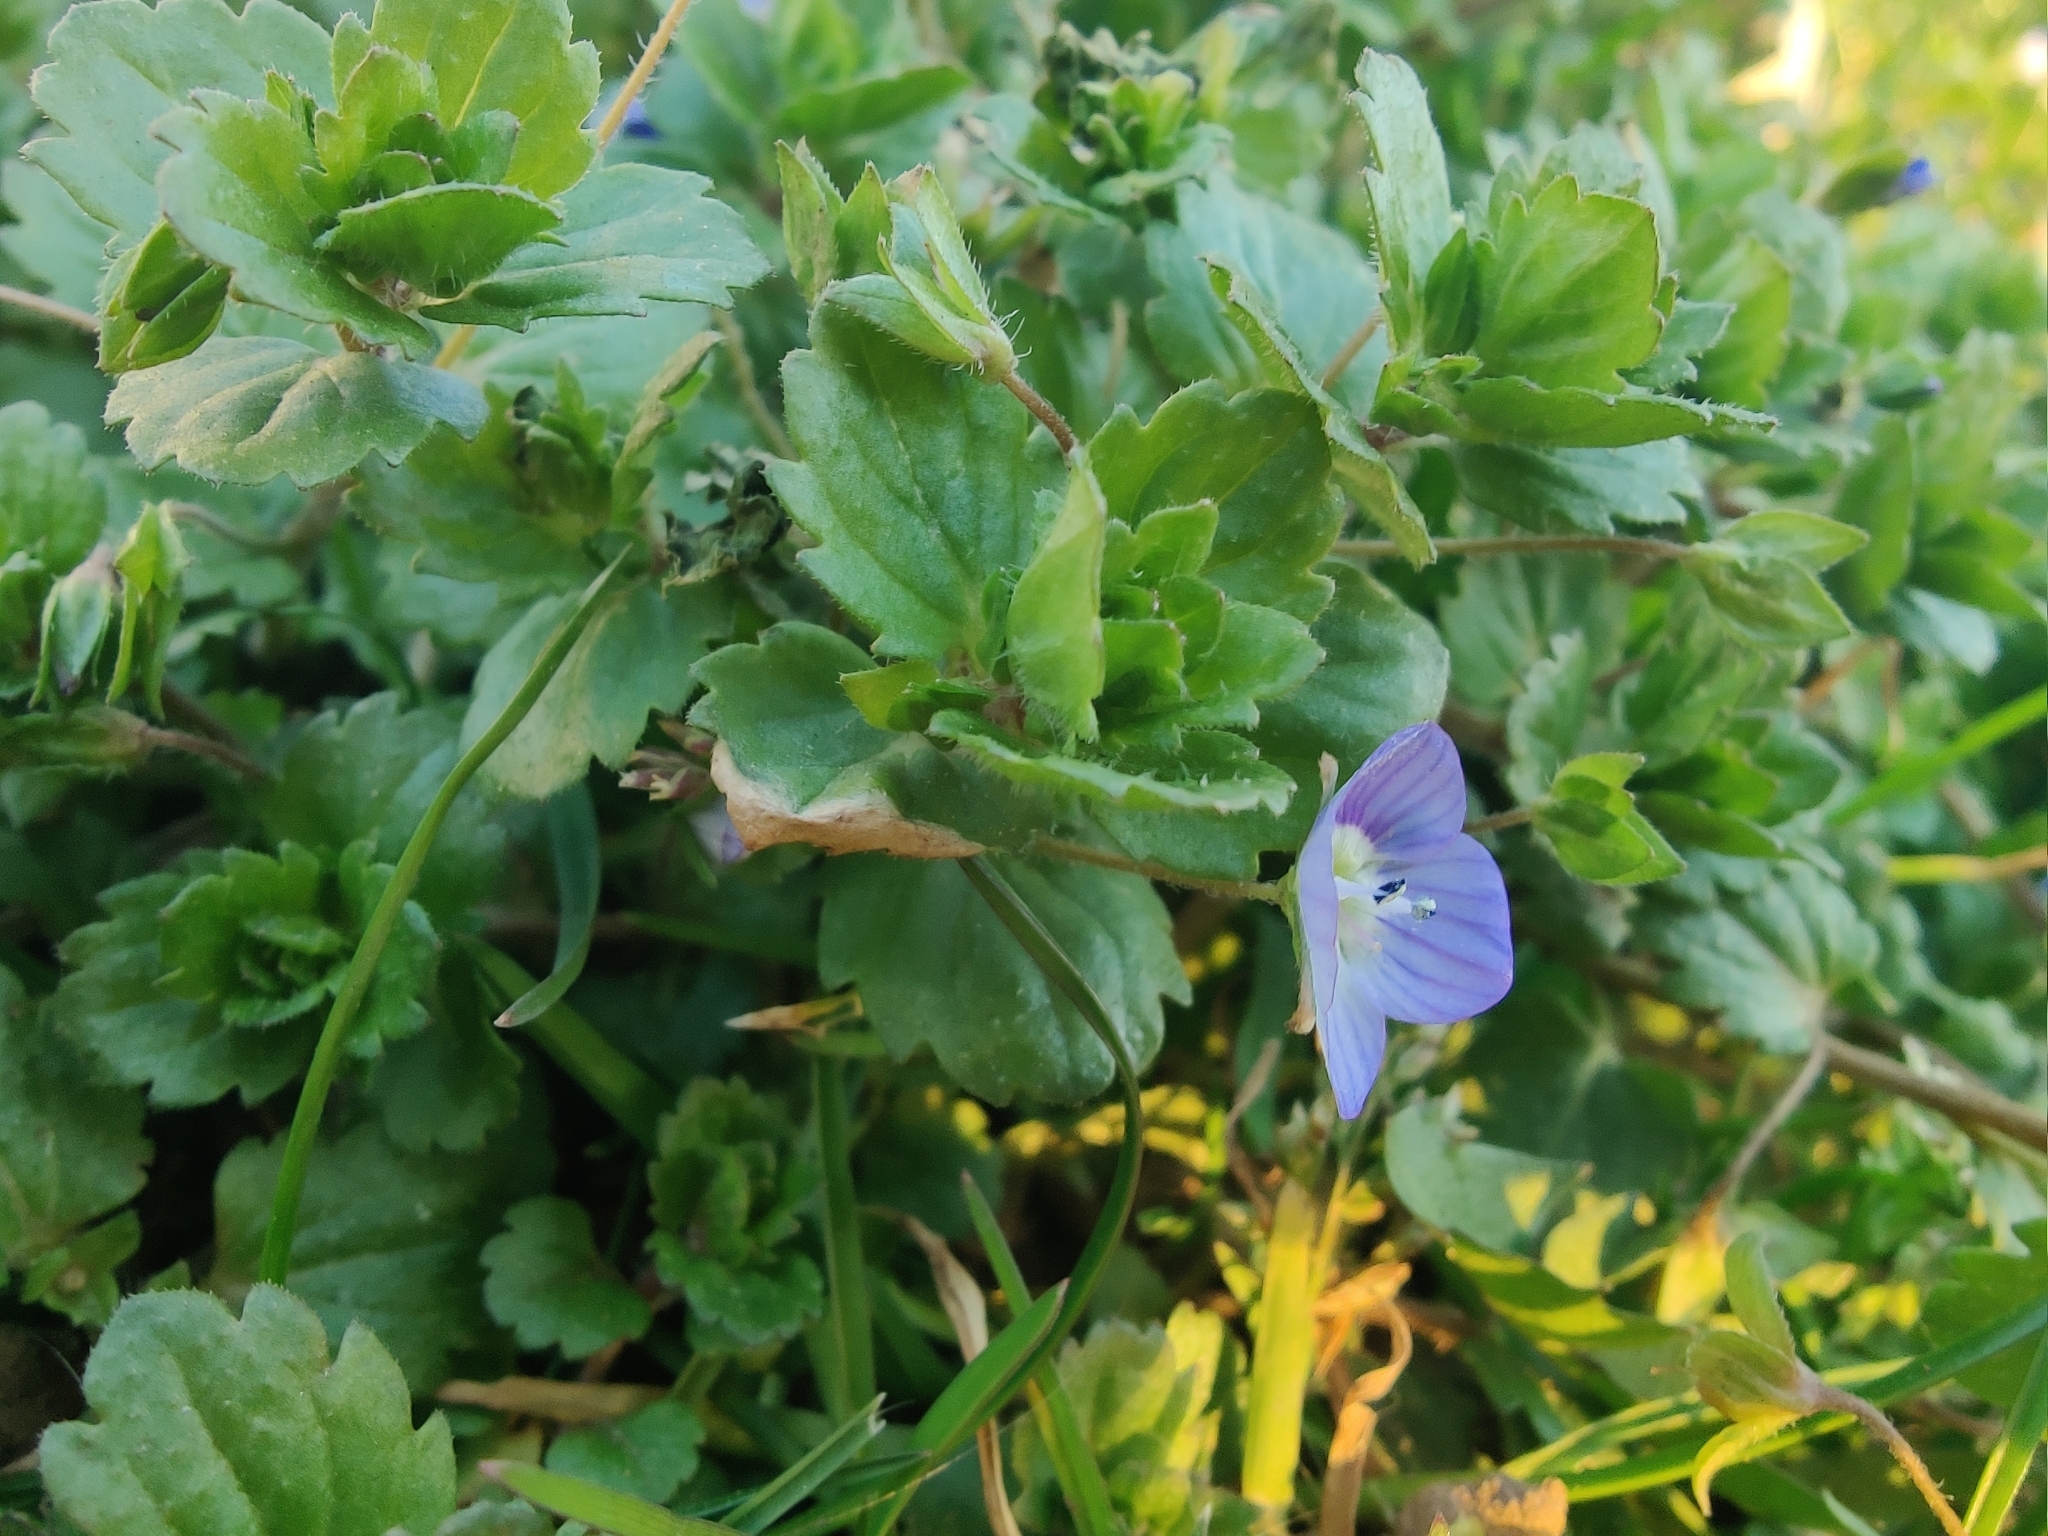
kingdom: Plantae
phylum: Tracheophyta
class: Magnoliopsida
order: Lamiales
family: Plantaginaceae
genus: Veronica
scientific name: Veronica persica
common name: Common field-speedwell
